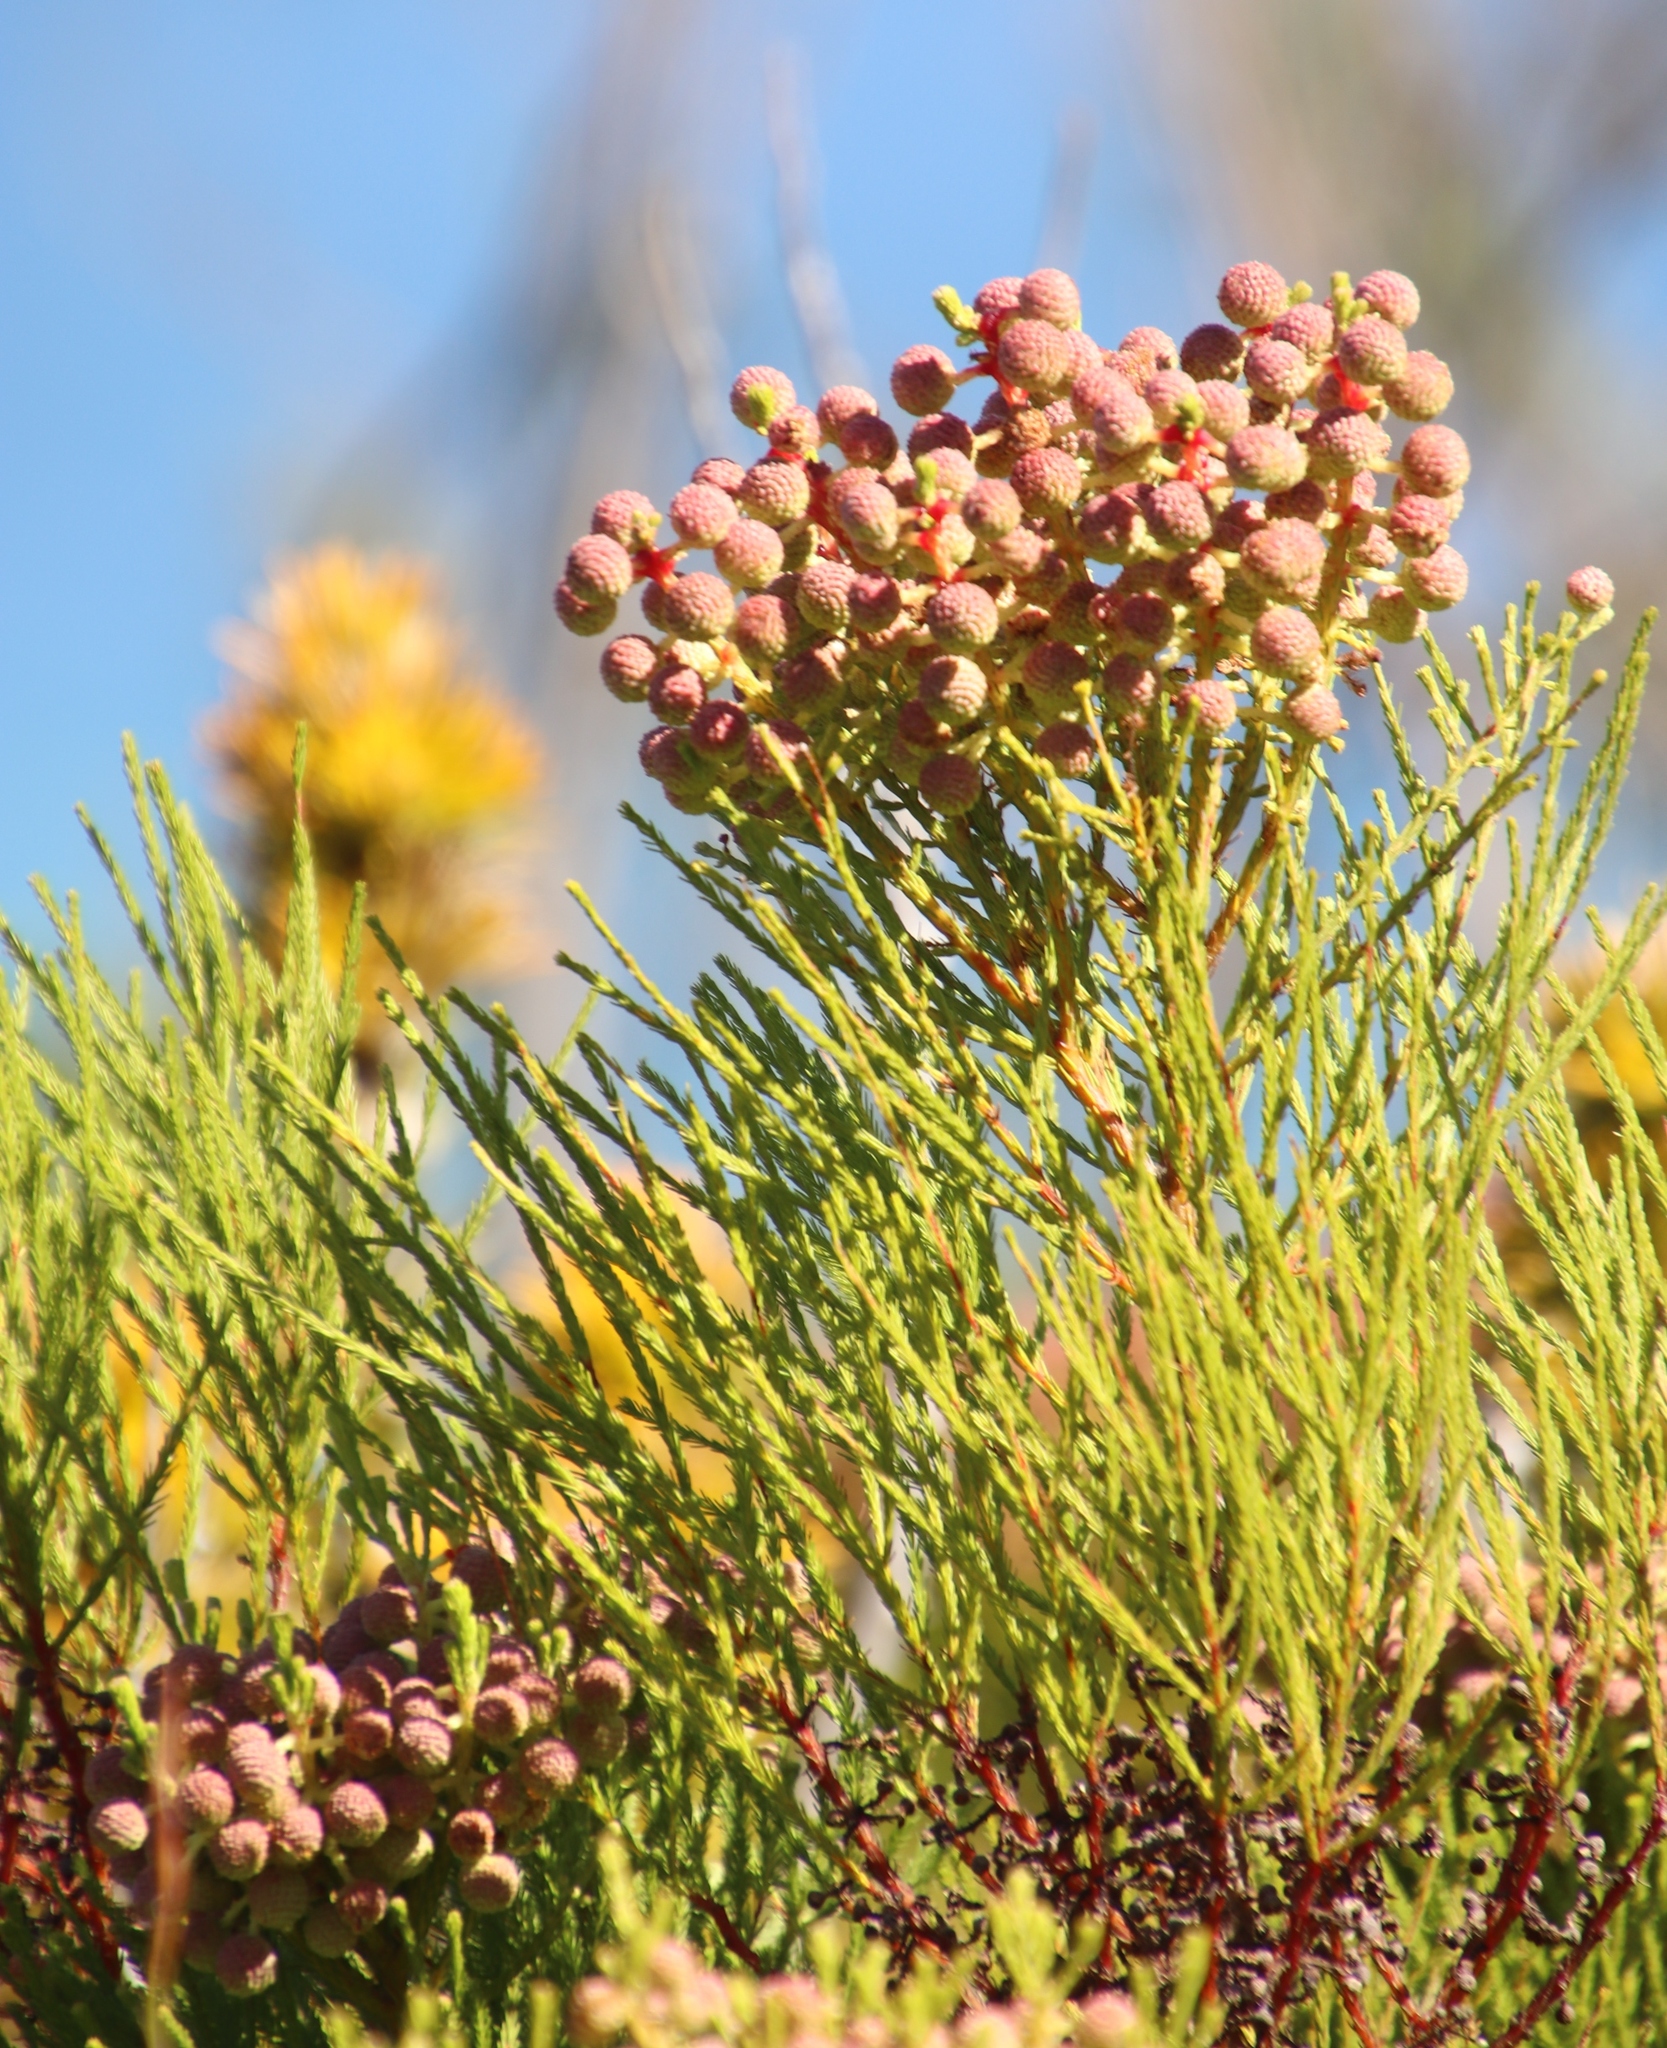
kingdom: Plantae
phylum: Tracheophyta
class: Magnoliopsida
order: Bruniales
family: Bruniaceae
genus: Berzelia
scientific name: Berzelia lanuginosa
